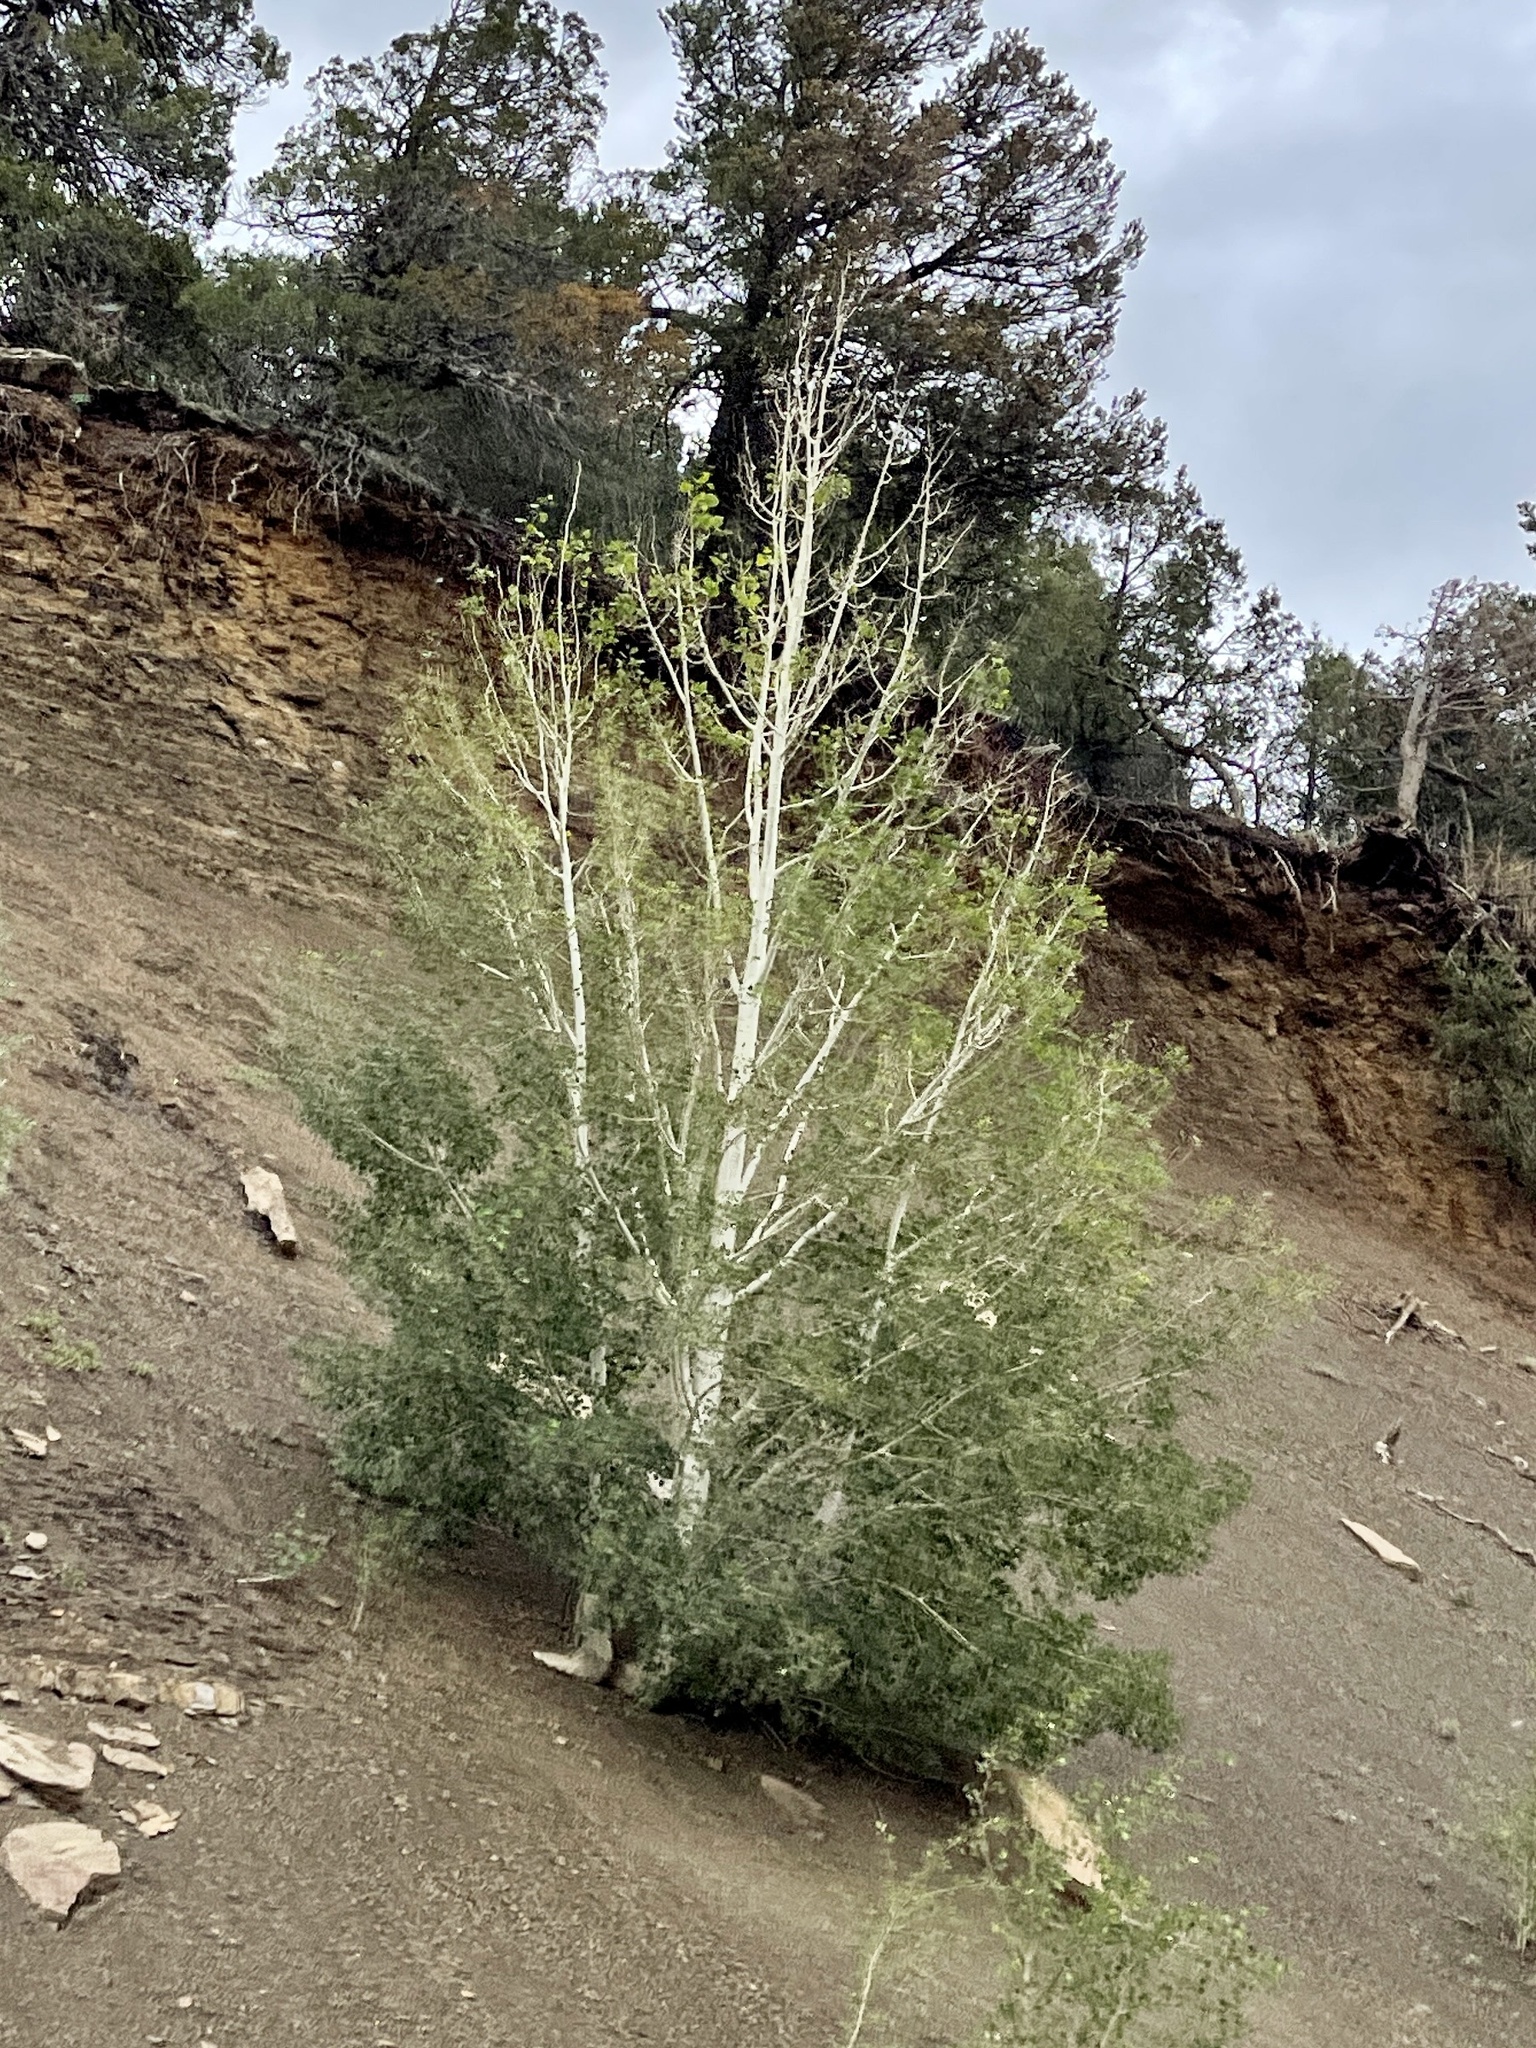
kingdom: Plantae
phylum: Tracheophyta
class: Magnoliopsida
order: Malpighiales
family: Salicaceae
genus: Populus
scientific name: Populus tremuloides
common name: Quaking aspen
